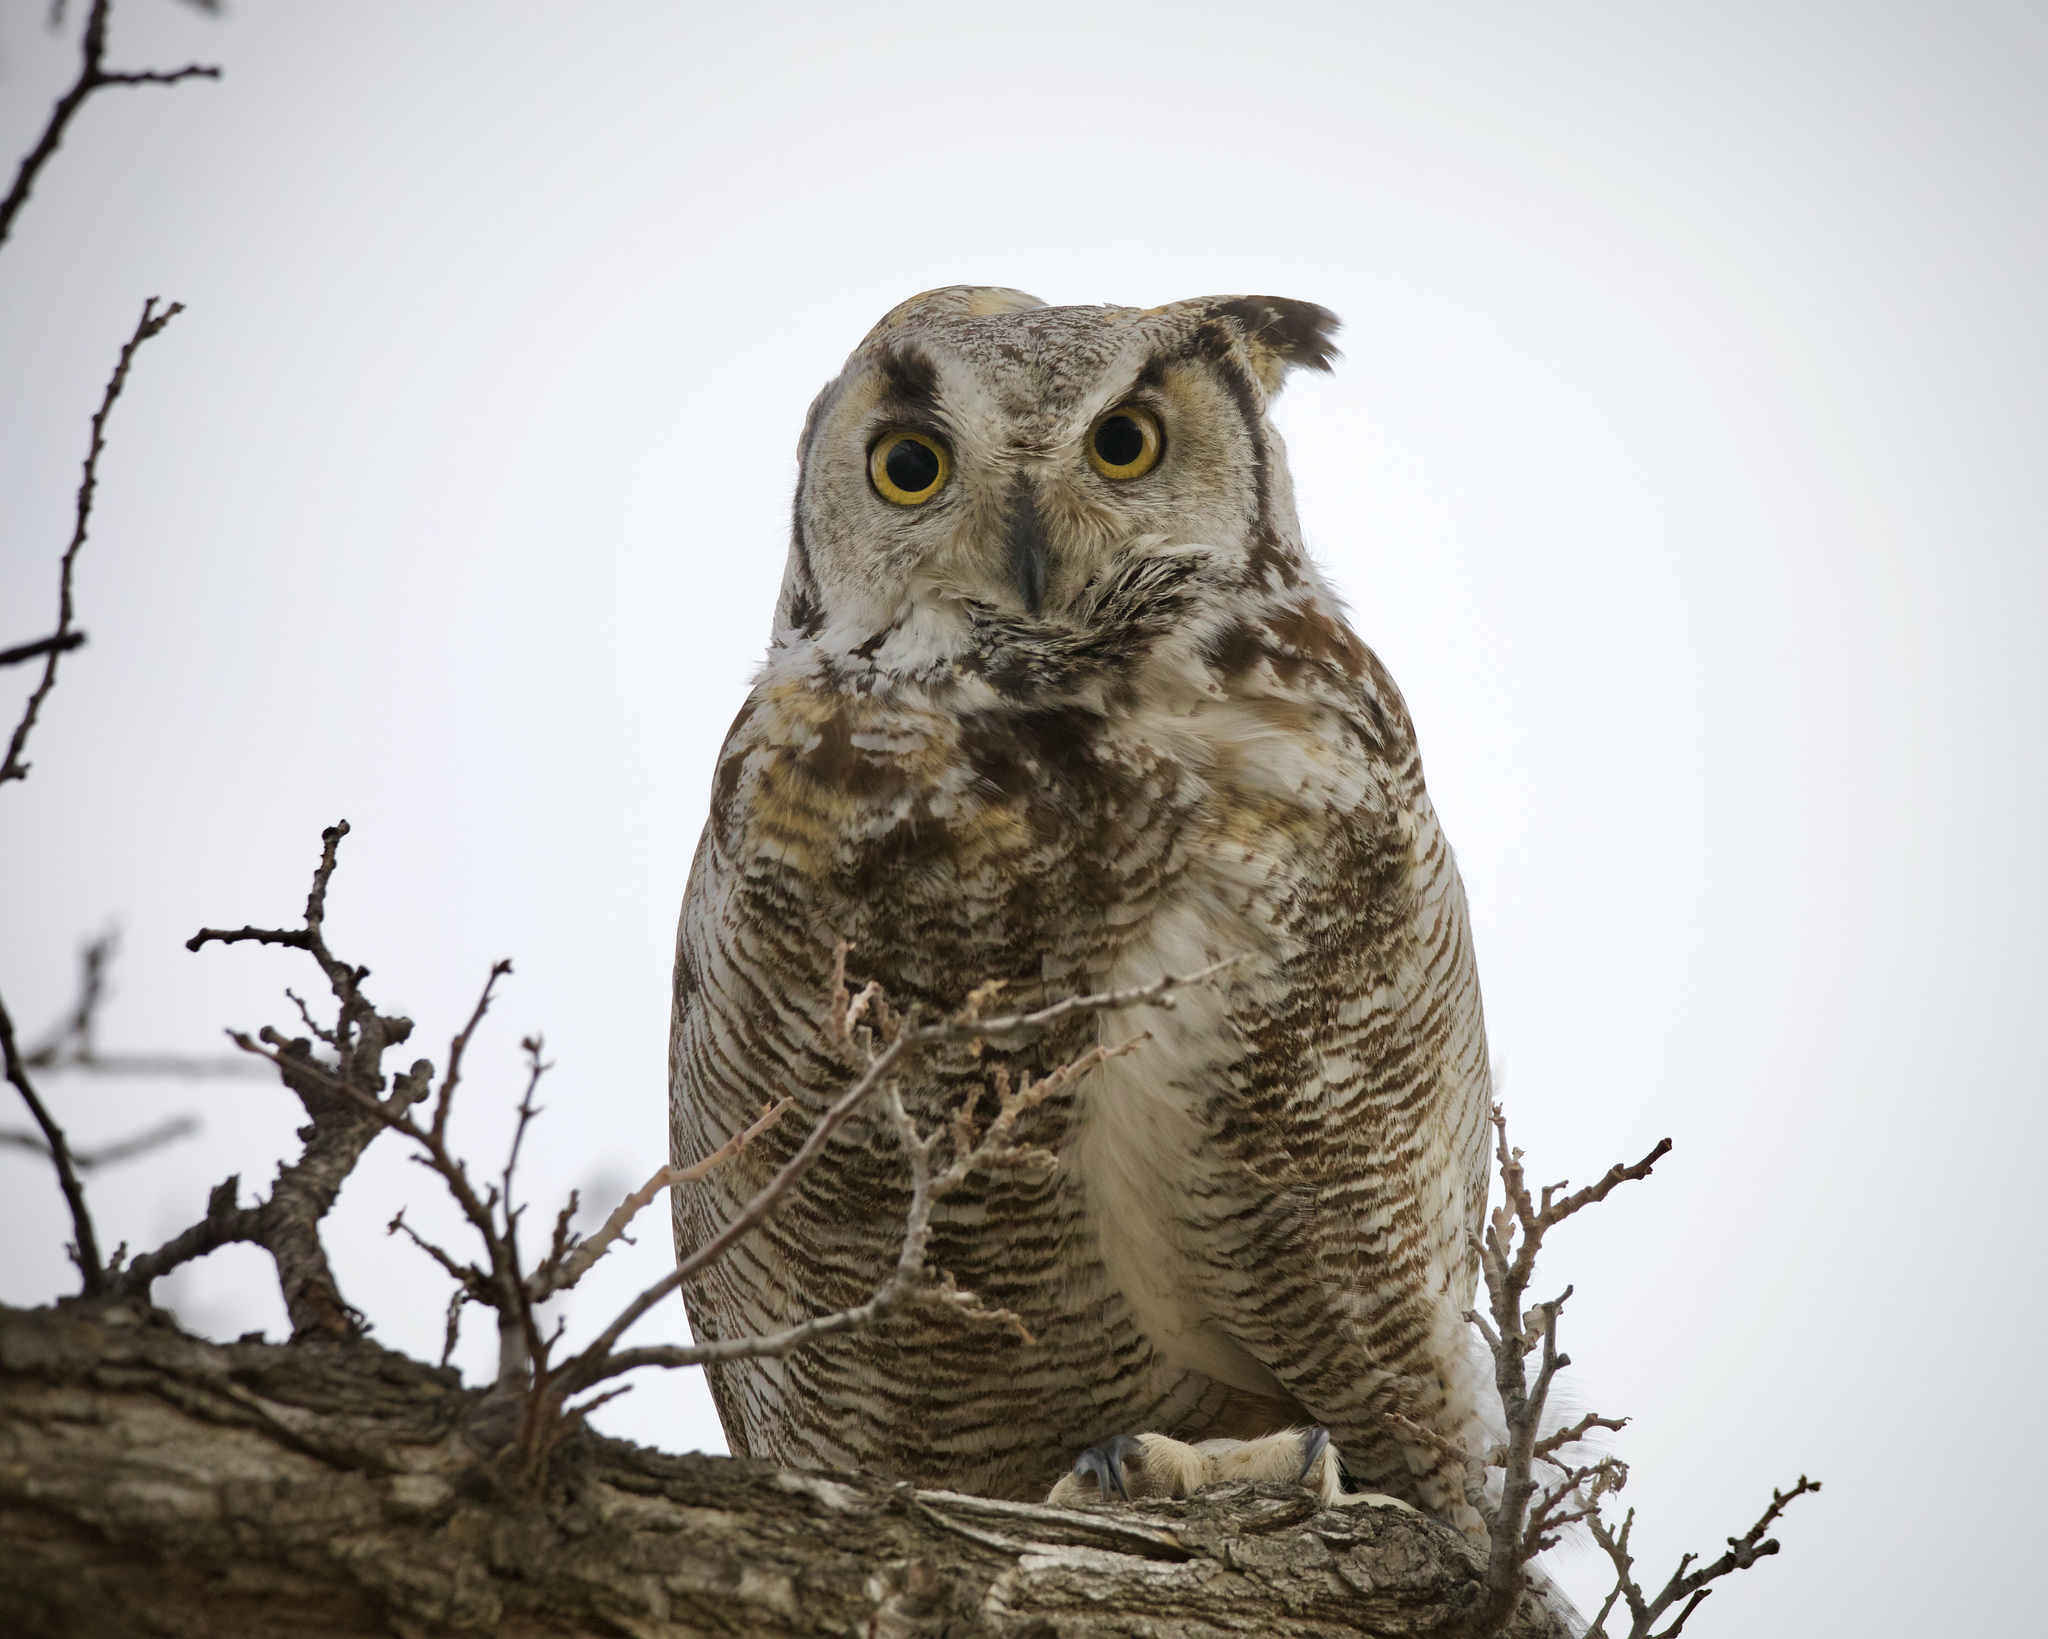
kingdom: Animalia
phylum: Chordata
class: Aves
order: Strigiformes
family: Strigidae
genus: Bubo
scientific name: Bubo virginianus
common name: Great horned owl
